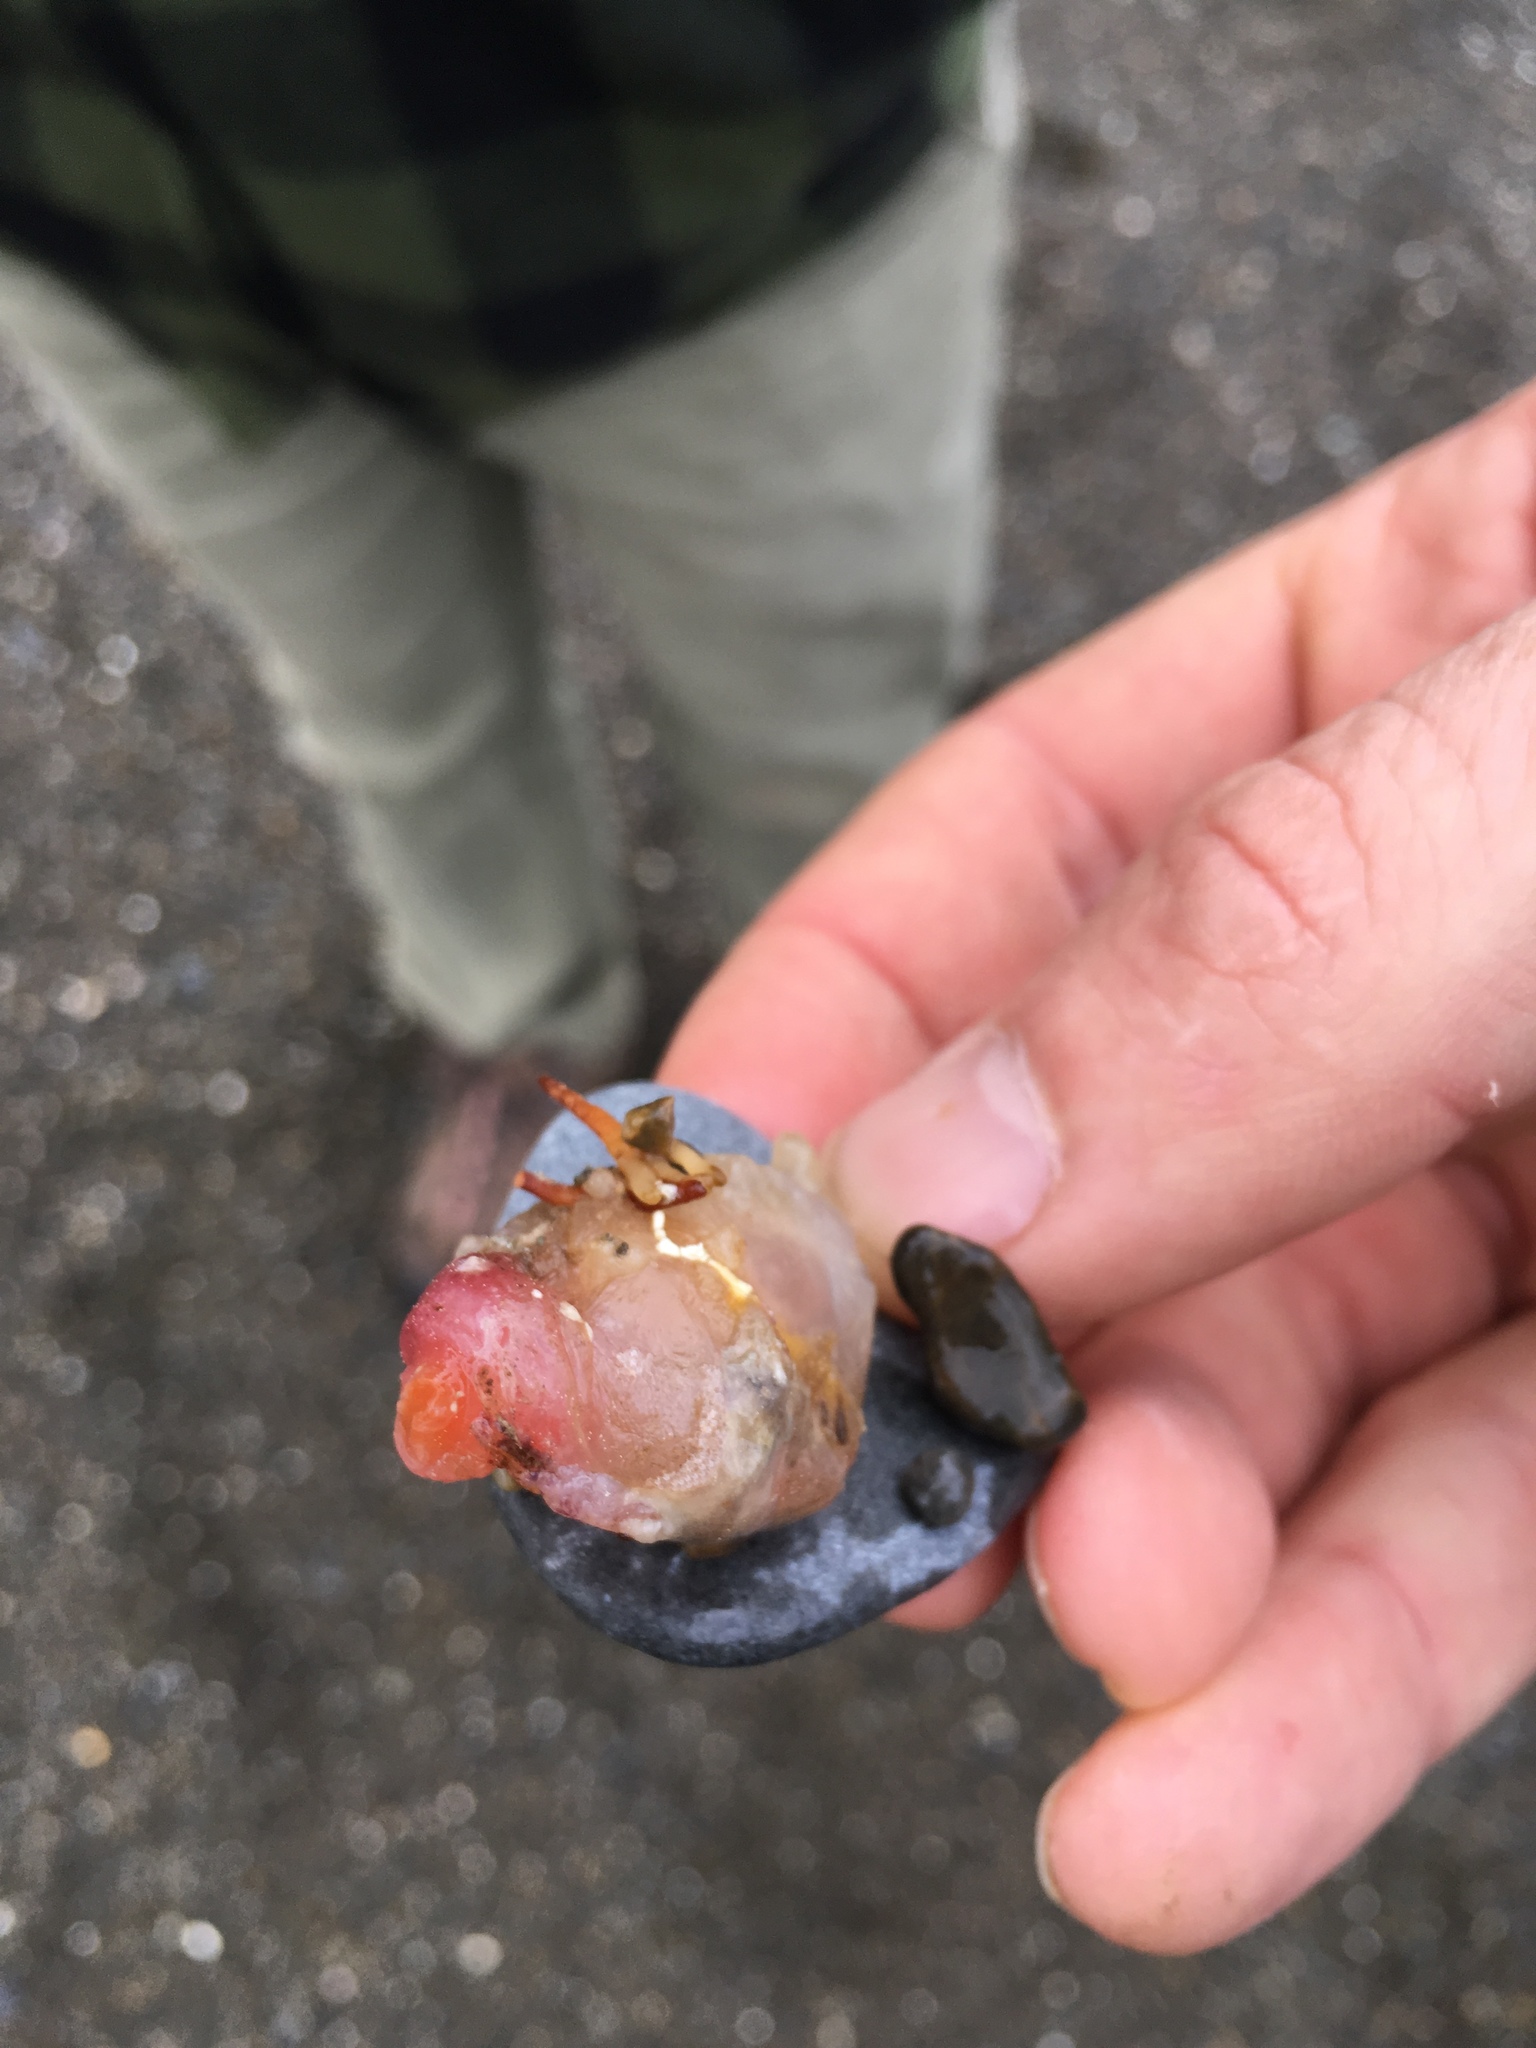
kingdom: Animalia
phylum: Chordata
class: Ascidiacea
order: Phlebobranchia
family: Corellidae
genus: Corella
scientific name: Corella eumyota
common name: Orange-tipped sea squirt
